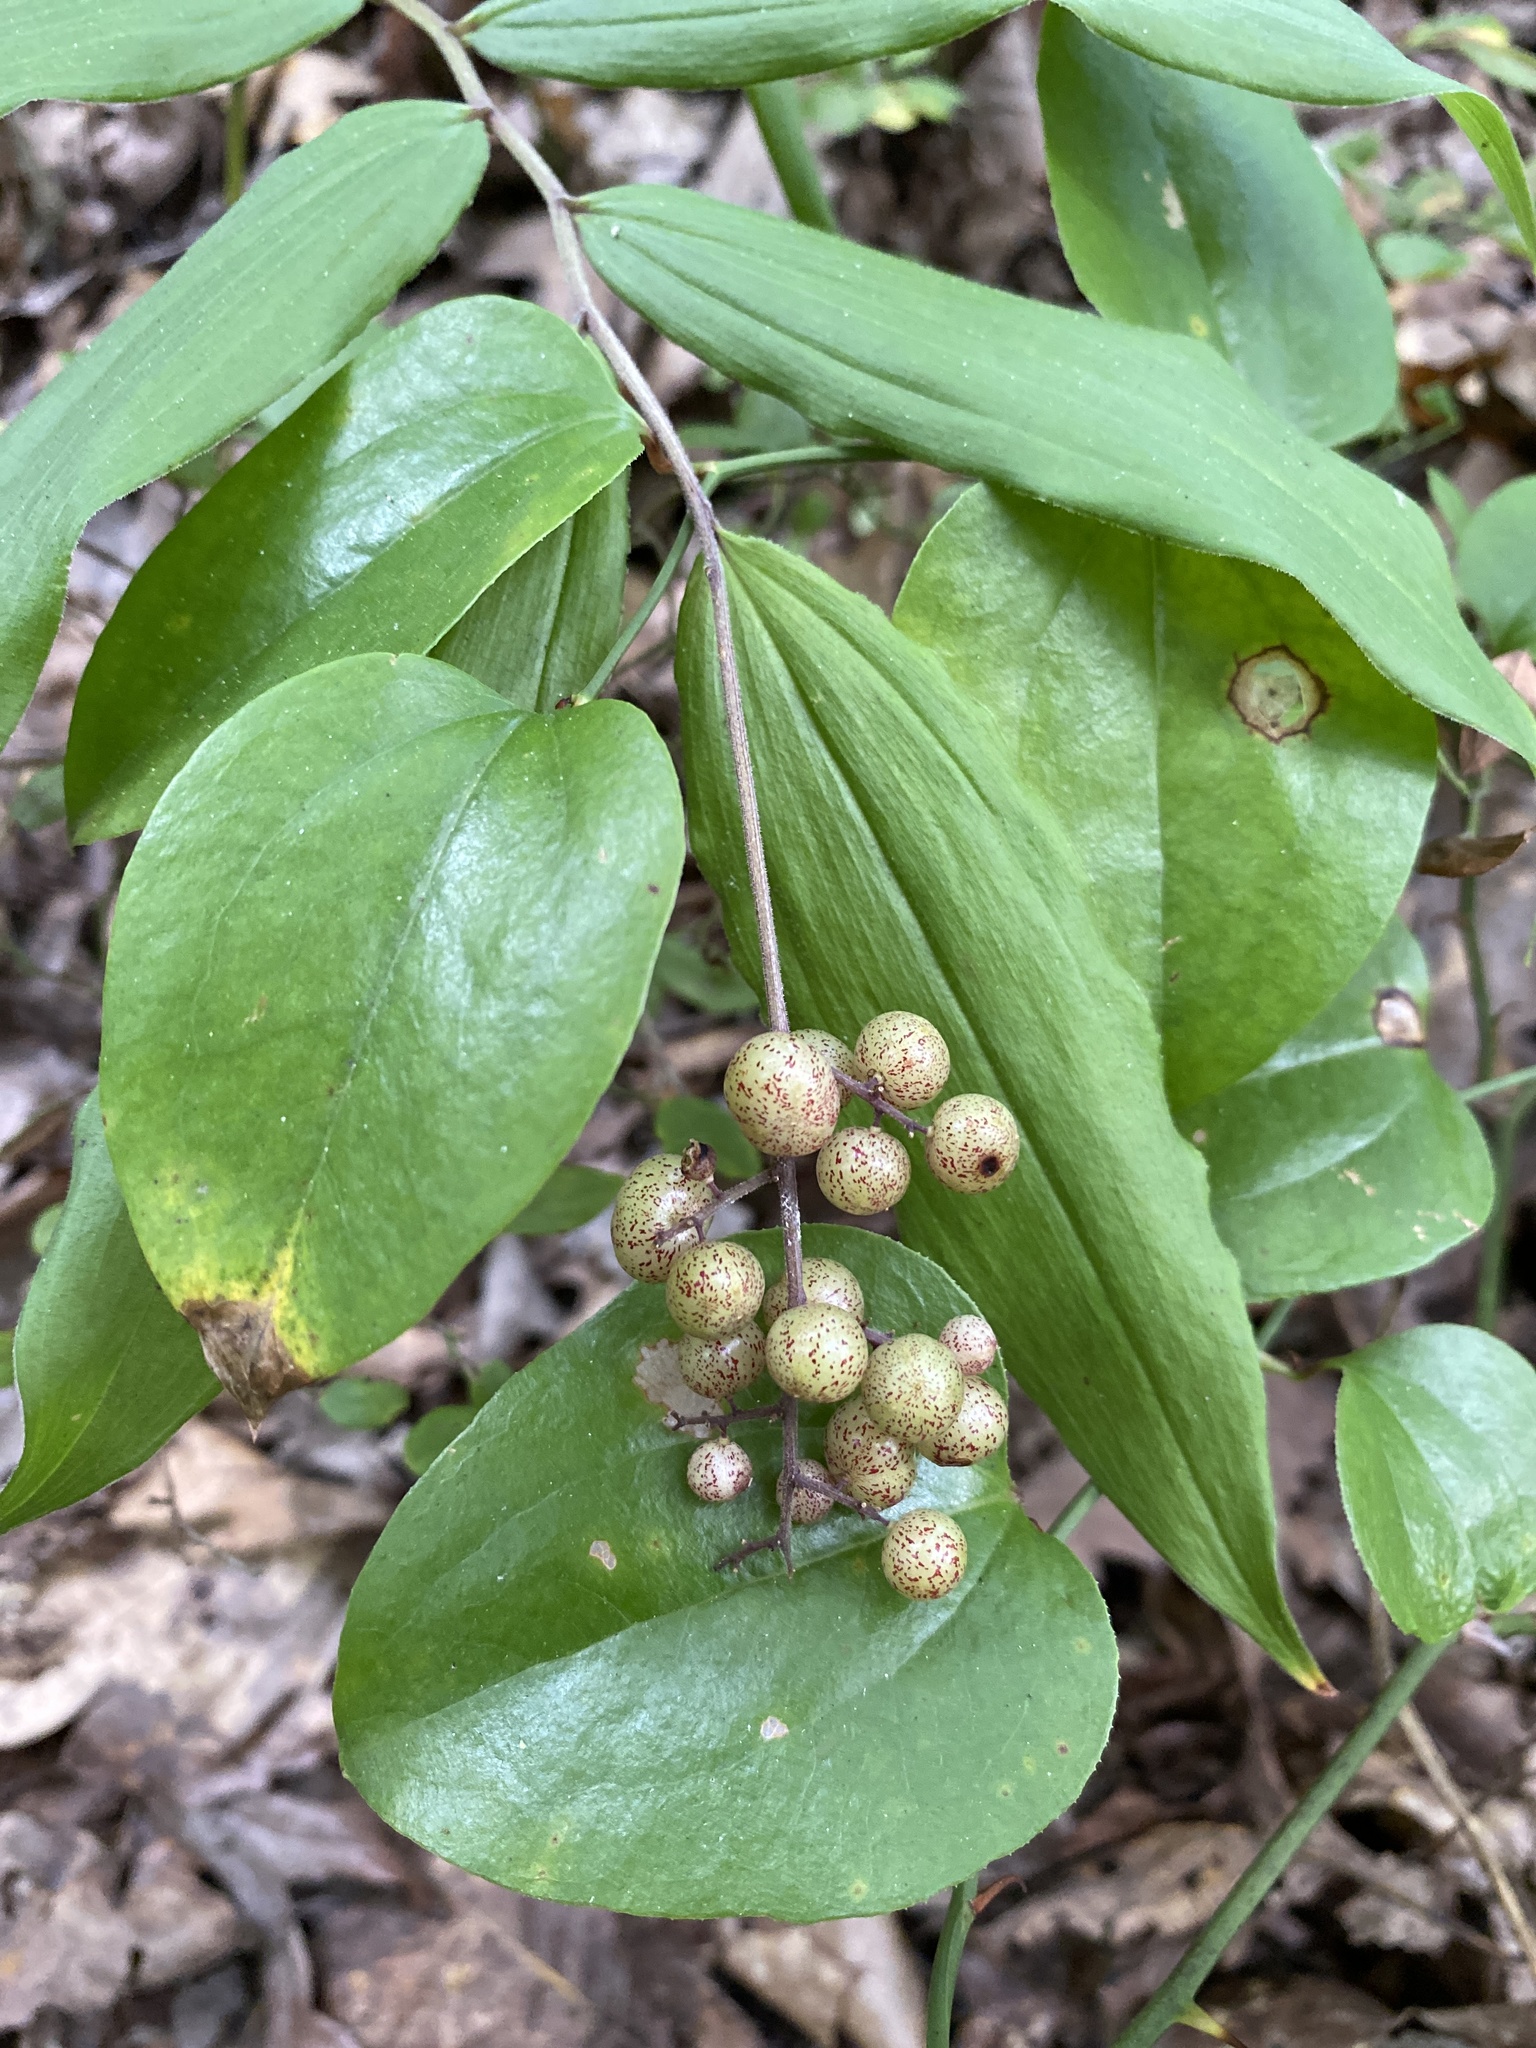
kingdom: Plantae
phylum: Tracheophyta
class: Liliopsida
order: Asparagales
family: Asparagaceae
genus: Maianthemum
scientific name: Maianthemum racemosum
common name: False spikenard
